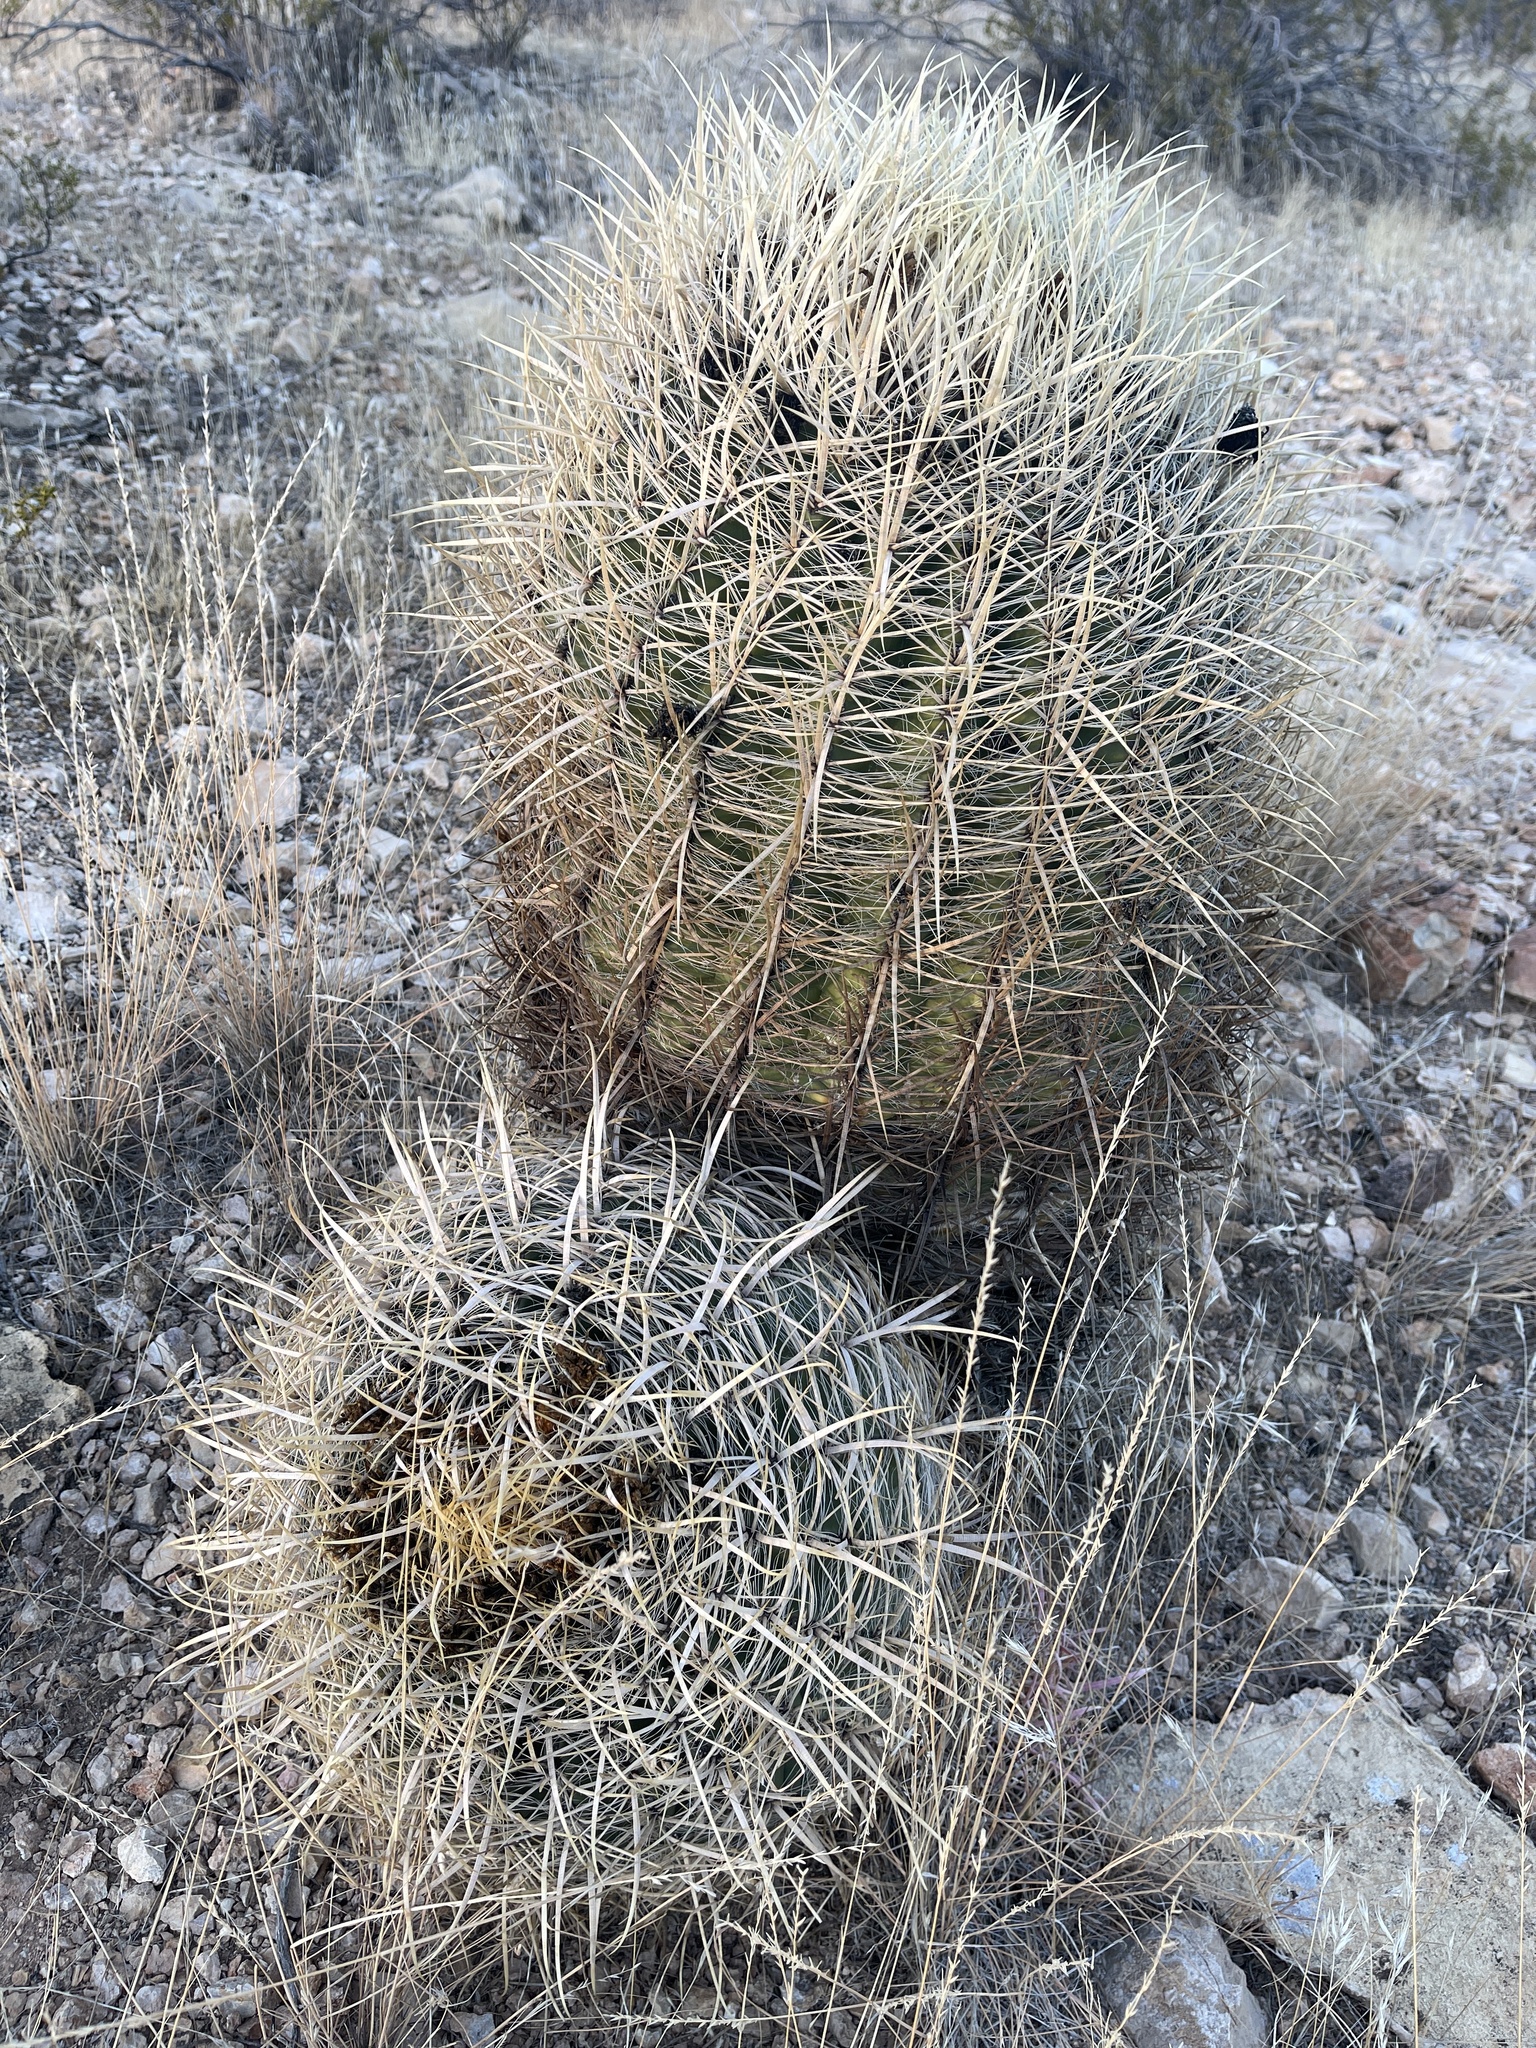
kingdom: Plantae
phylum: Tracheophyta
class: Magnoliopsida
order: Caryophyllales
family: Cactaceae
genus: Ferocactus
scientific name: Ferocactus cylindraceus
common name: California barrel cactus
